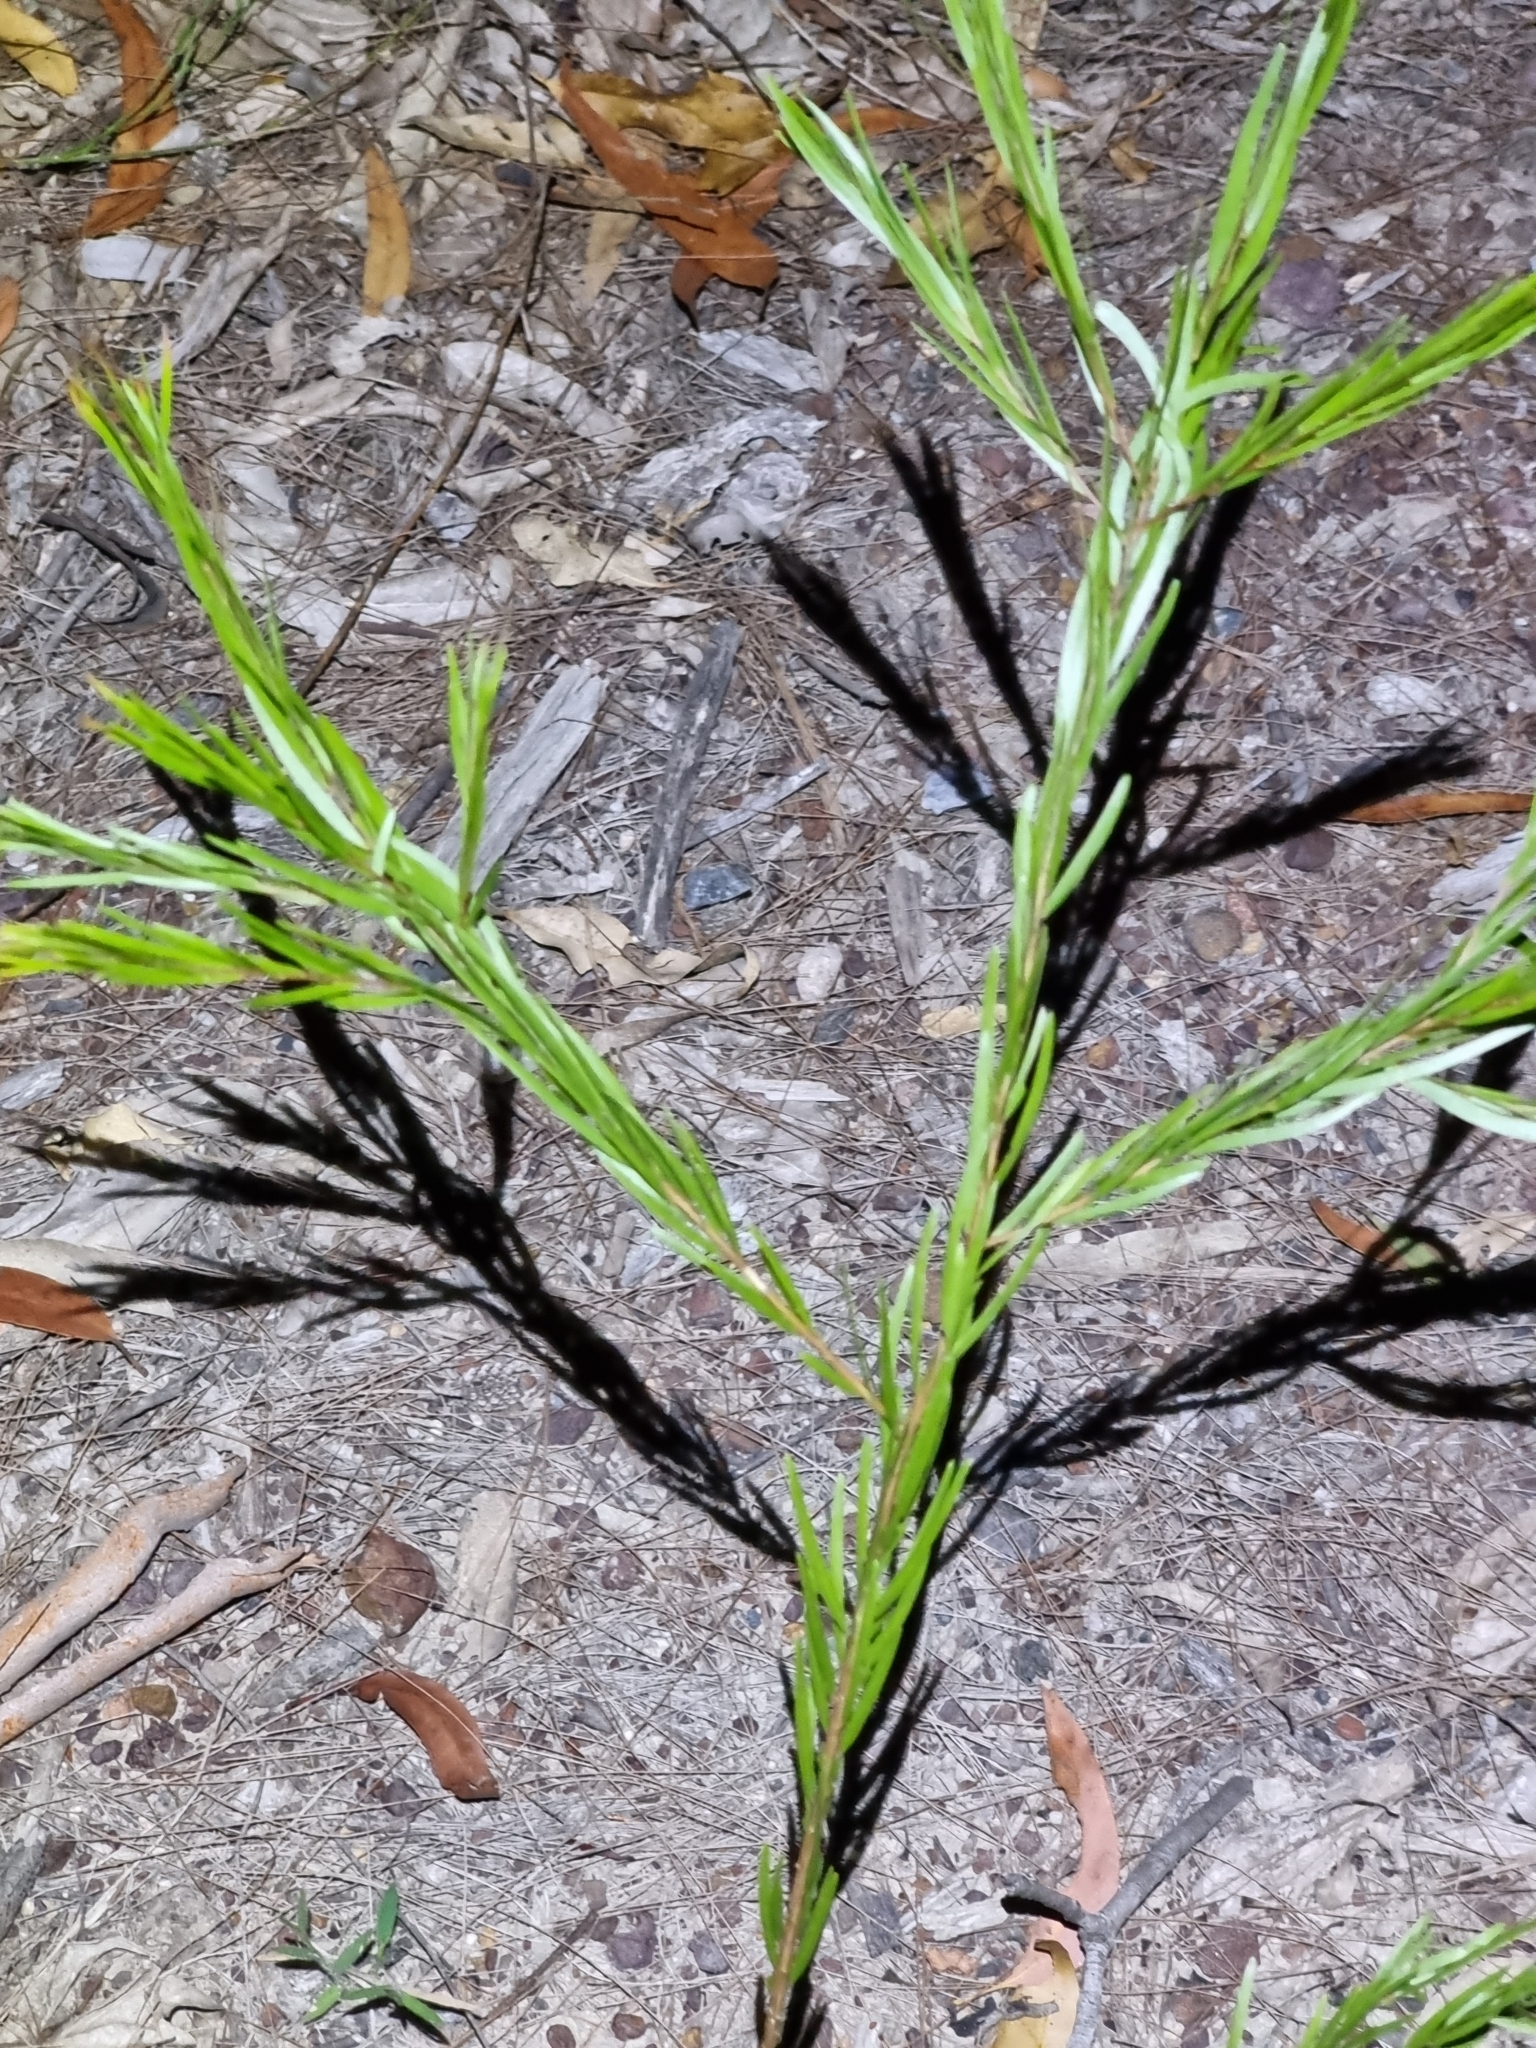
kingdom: Plantae
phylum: Tracheophyta
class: Magnoliopsida
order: Fabales
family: Fabaceae
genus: Acacia
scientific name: Acacia fimbriata
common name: Brisbane golden wattle
